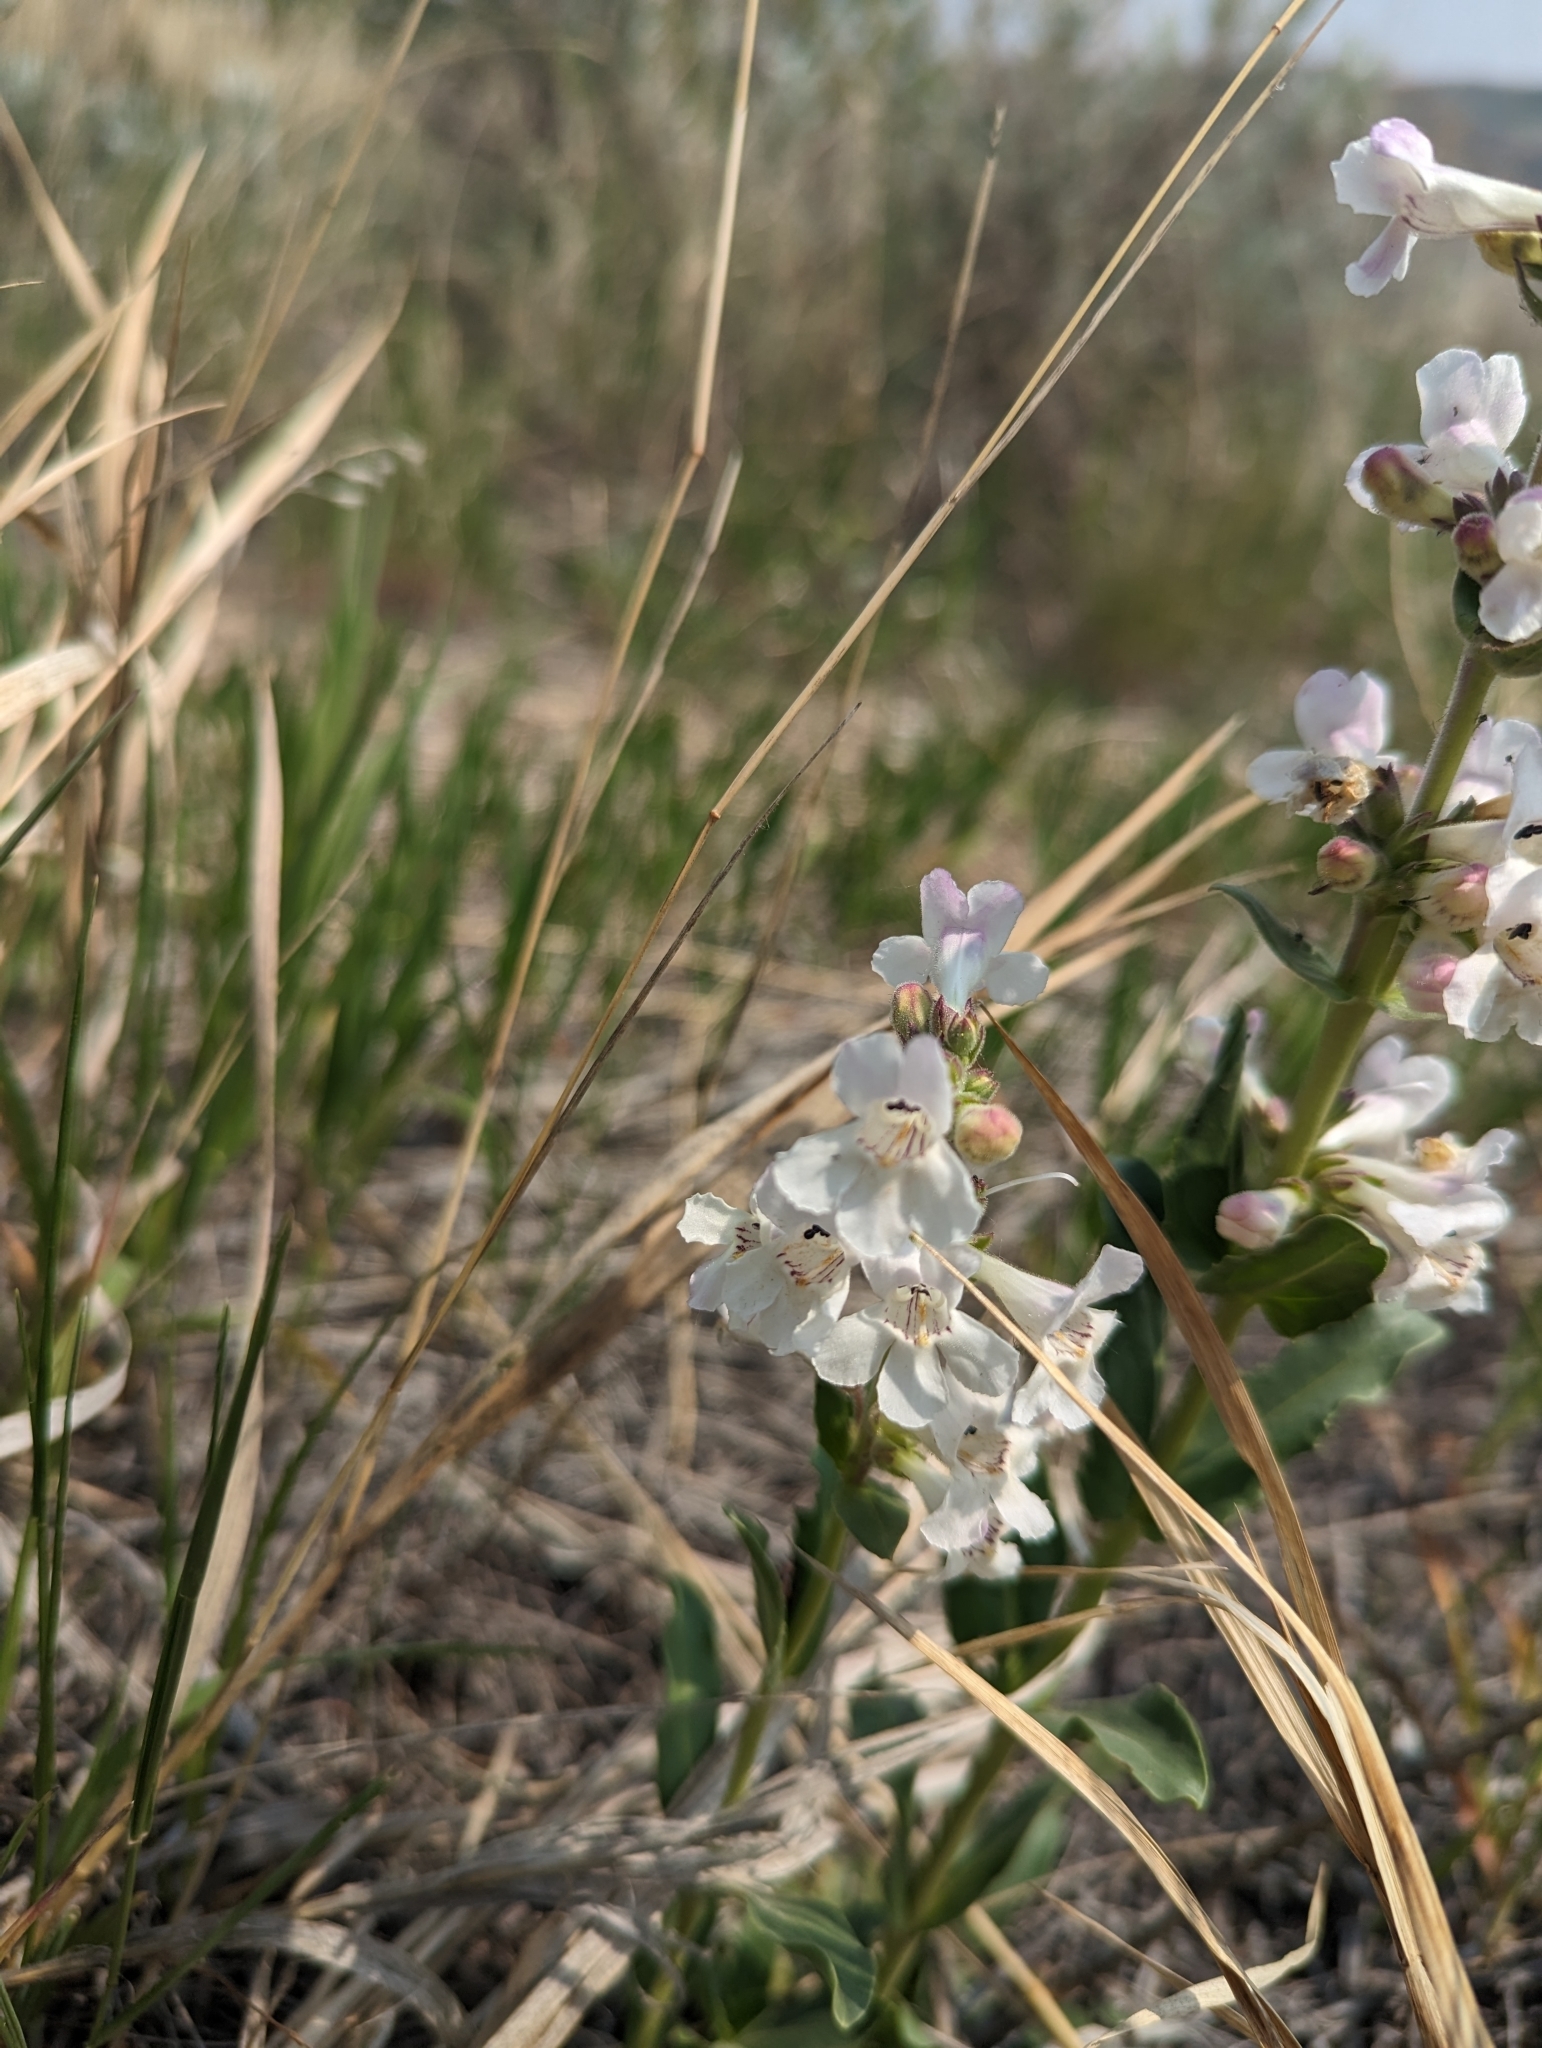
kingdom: Plantae
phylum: Tracheophyta
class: Magnoliopsida
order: Lamiales
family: Plantaginaceae
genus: Penstemon
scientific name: Penstemon albidus
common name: White beardtongue
